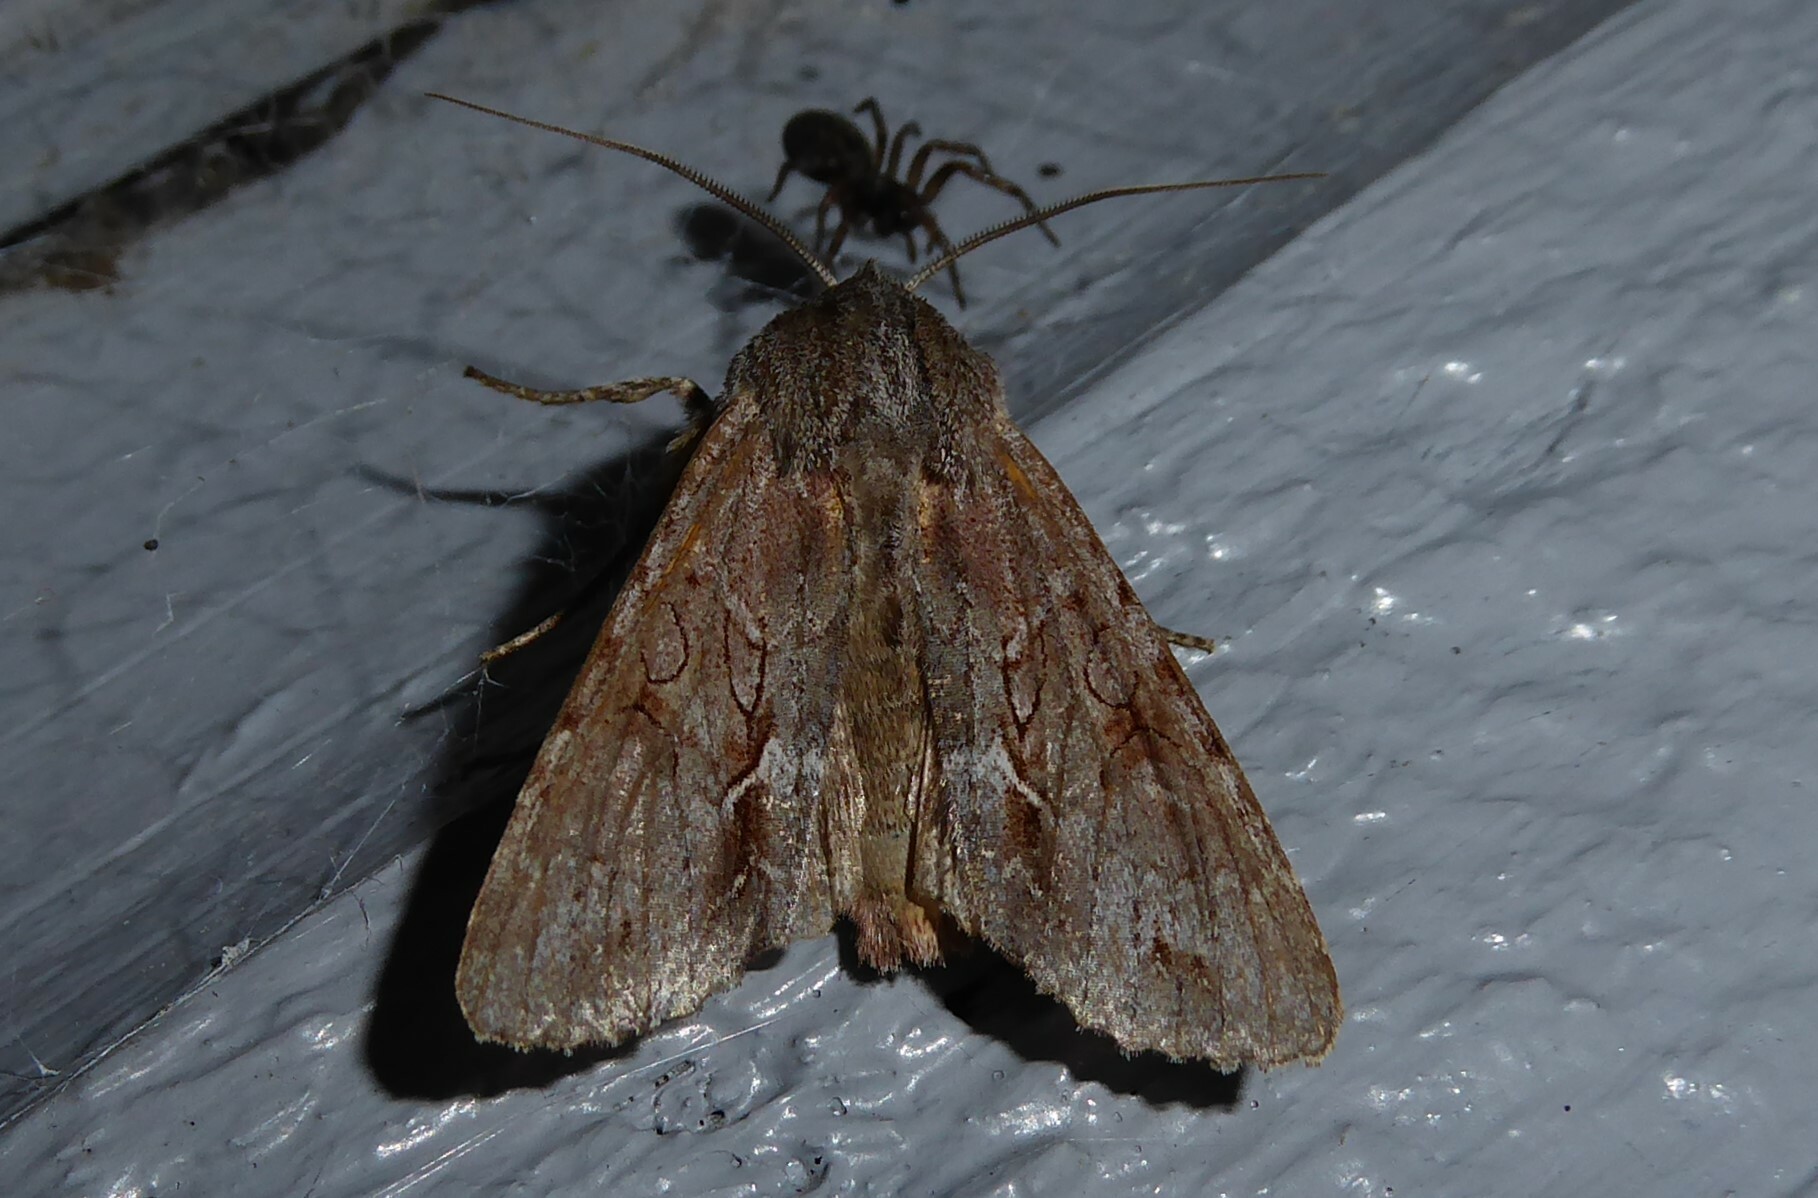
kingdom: Animalia
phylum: Arthropoda
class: Insecta
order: Lepidoptera
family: Noctuidae
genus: Ichneutica
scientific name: Ichneutica
